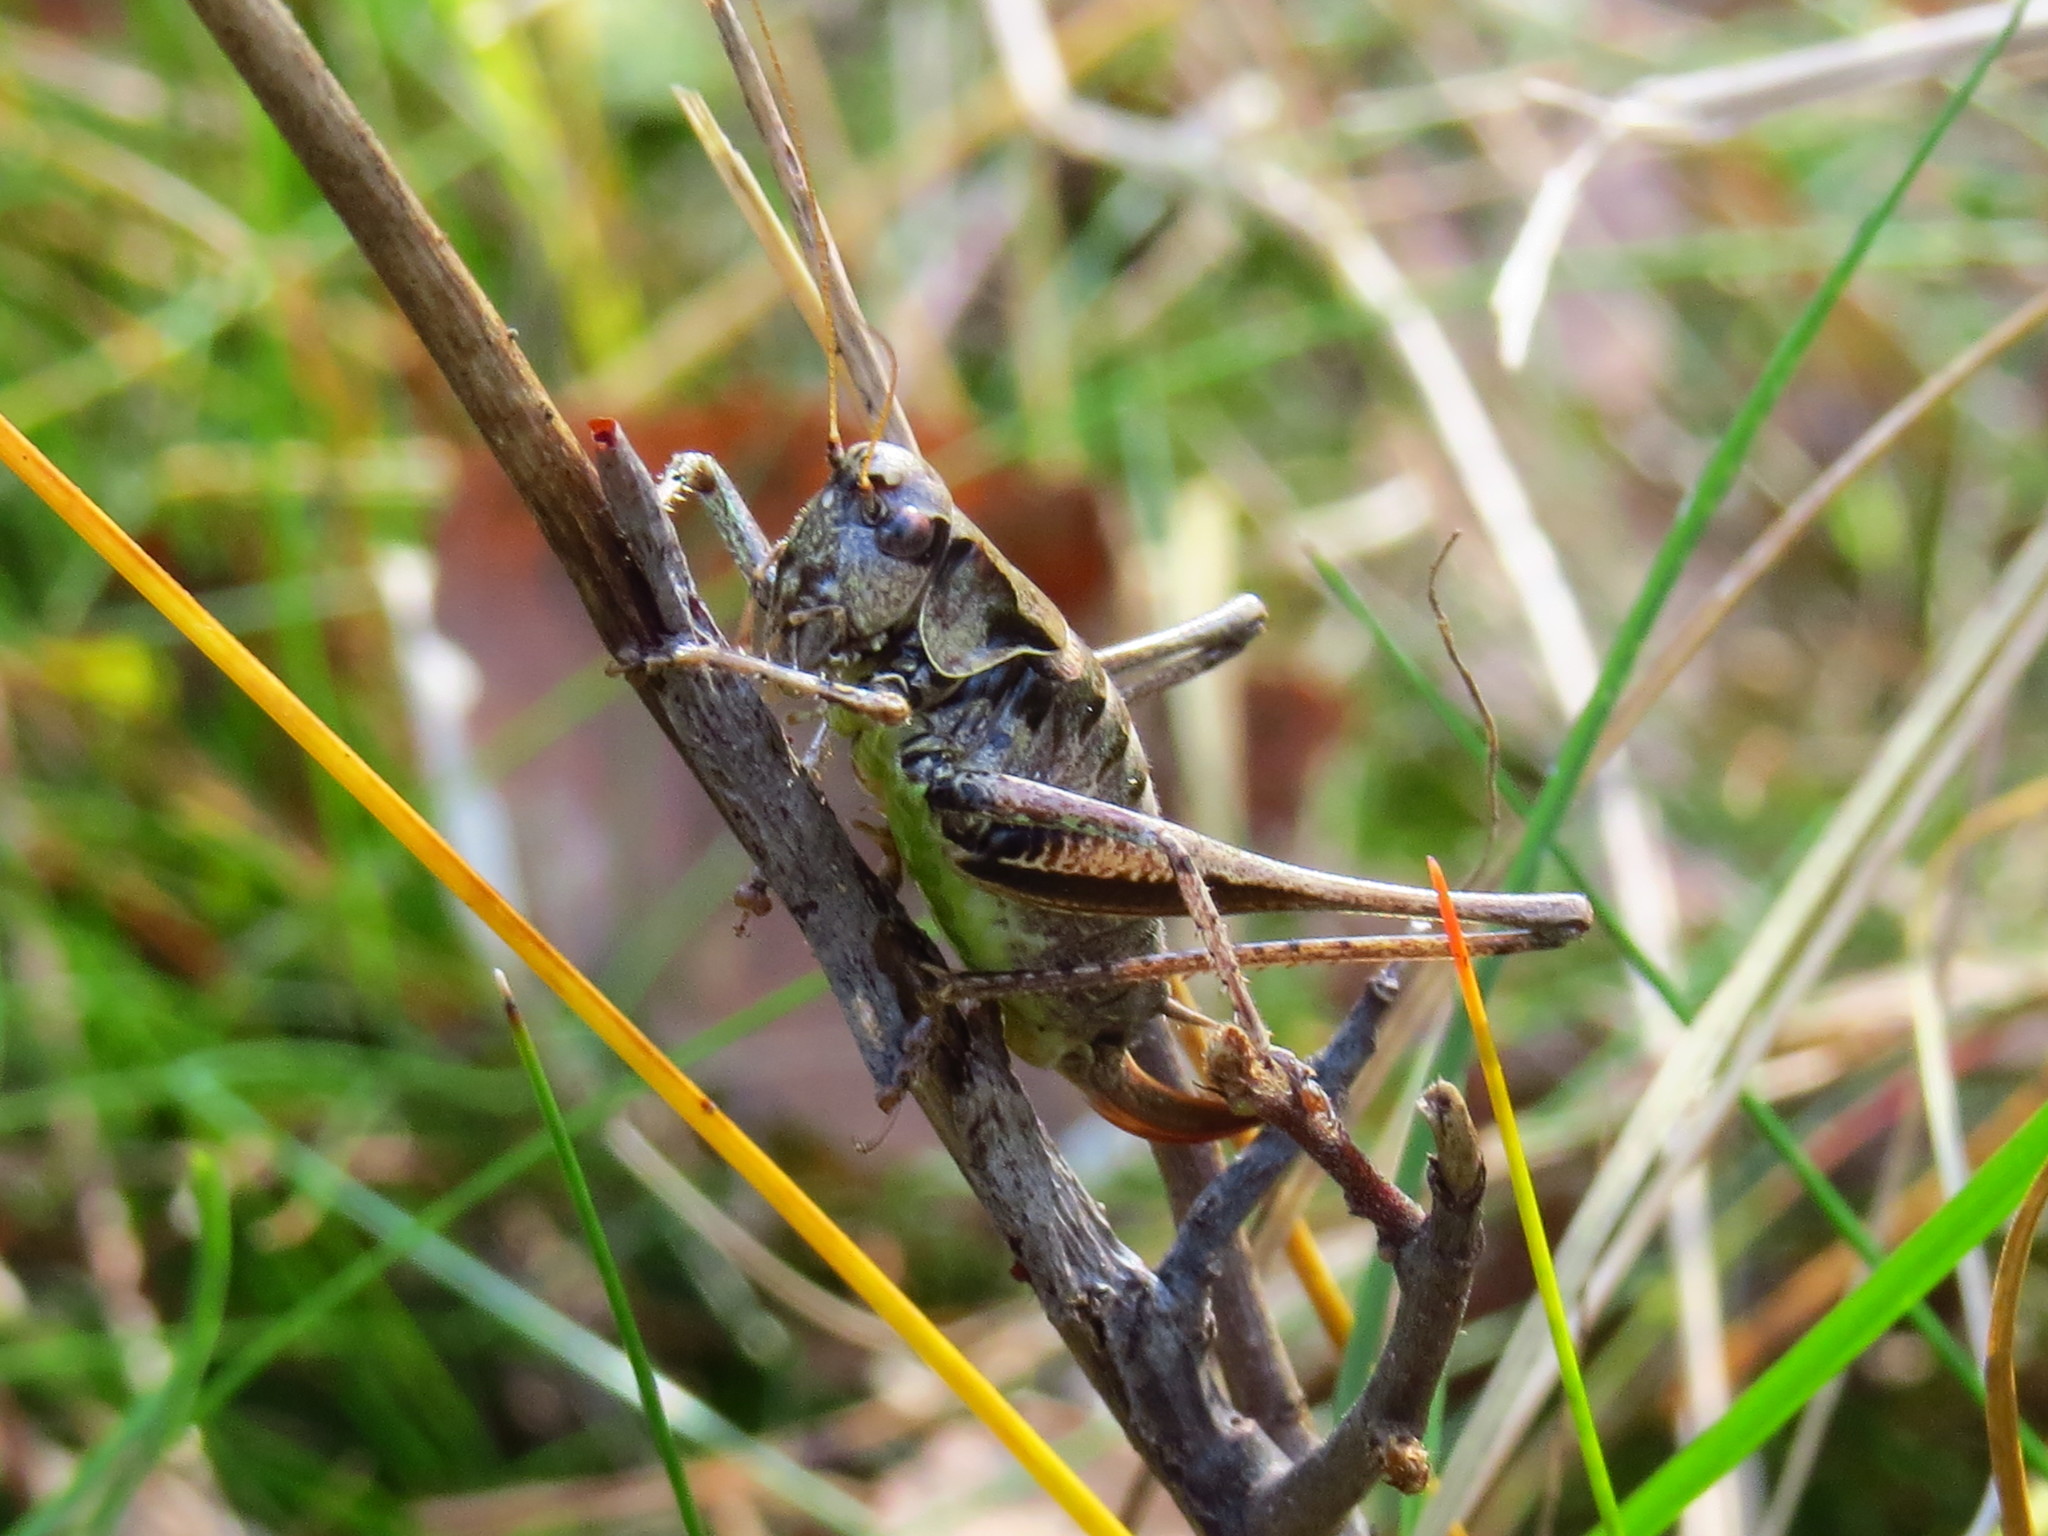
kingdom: Animalia
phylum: Arthropoda
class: Insecta
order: Orthoptera
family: Tettigoniidae
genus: Pholidoptera
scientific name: Pholidoptera griseoaptera
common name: Dark bush-cricket
